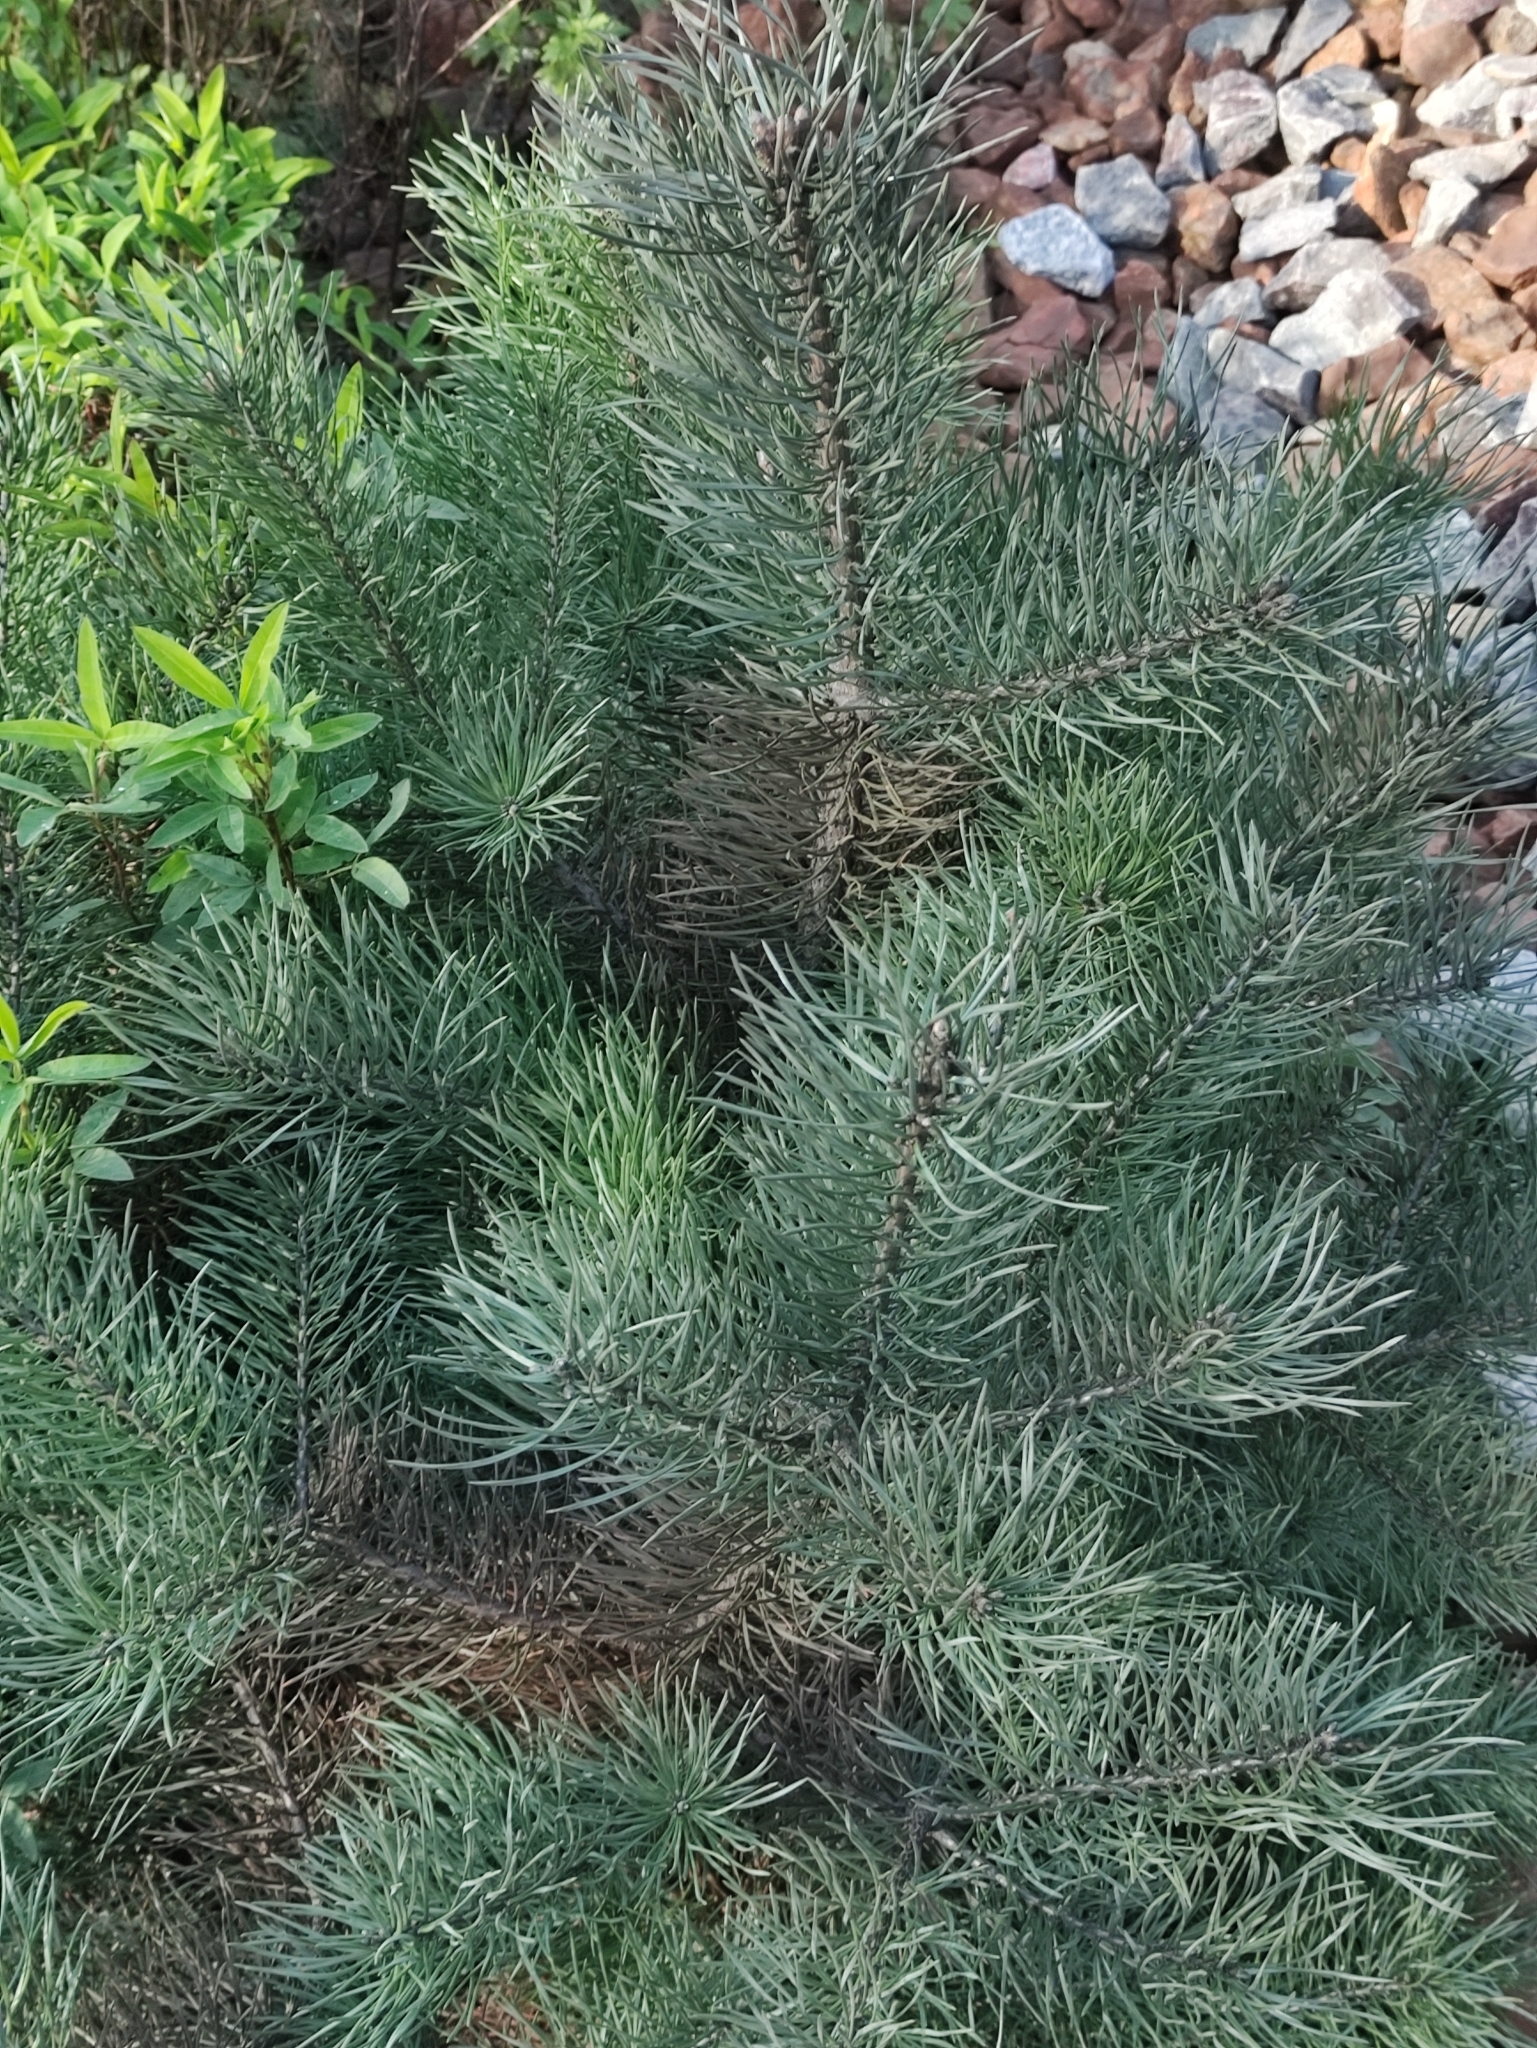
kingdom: Plantae
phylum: Tracheophyta
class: Pinopsida
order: Pinales
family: Pinaceae
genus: Pinus
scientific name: Pinus sylvestris
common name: Scots pine
